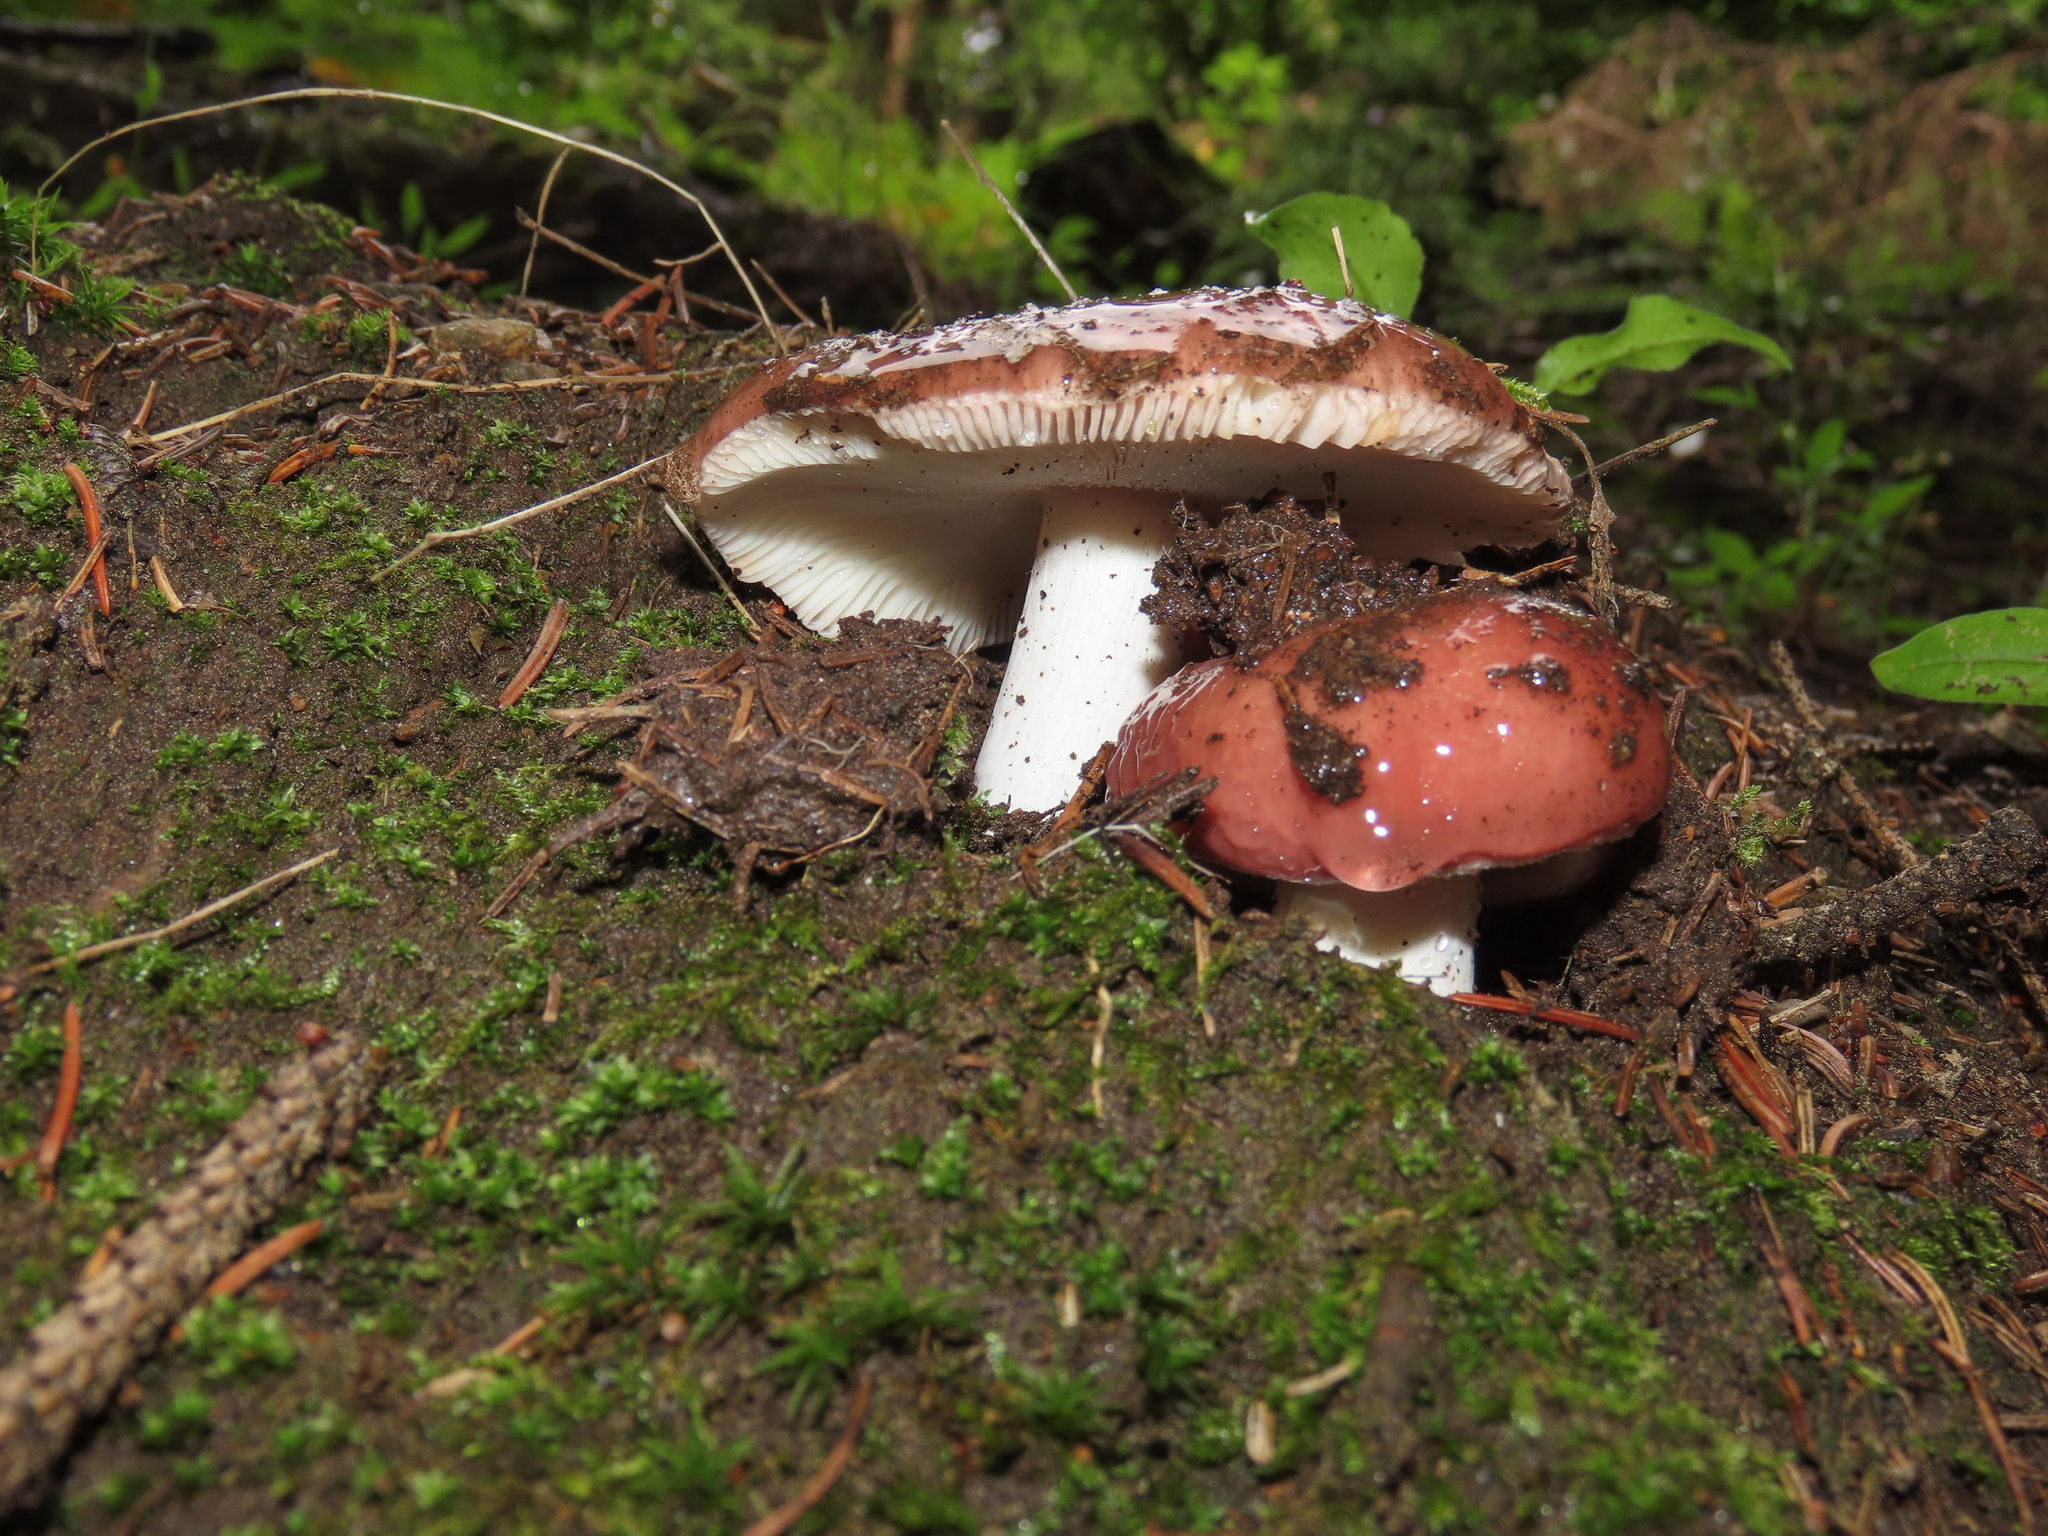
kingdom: Fungi
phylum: Basidiomycota
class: Agaricomycetes
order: Russulales
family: Russulaceae
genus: Russula
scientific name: Russula vesca
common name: Bare-toothed russula
